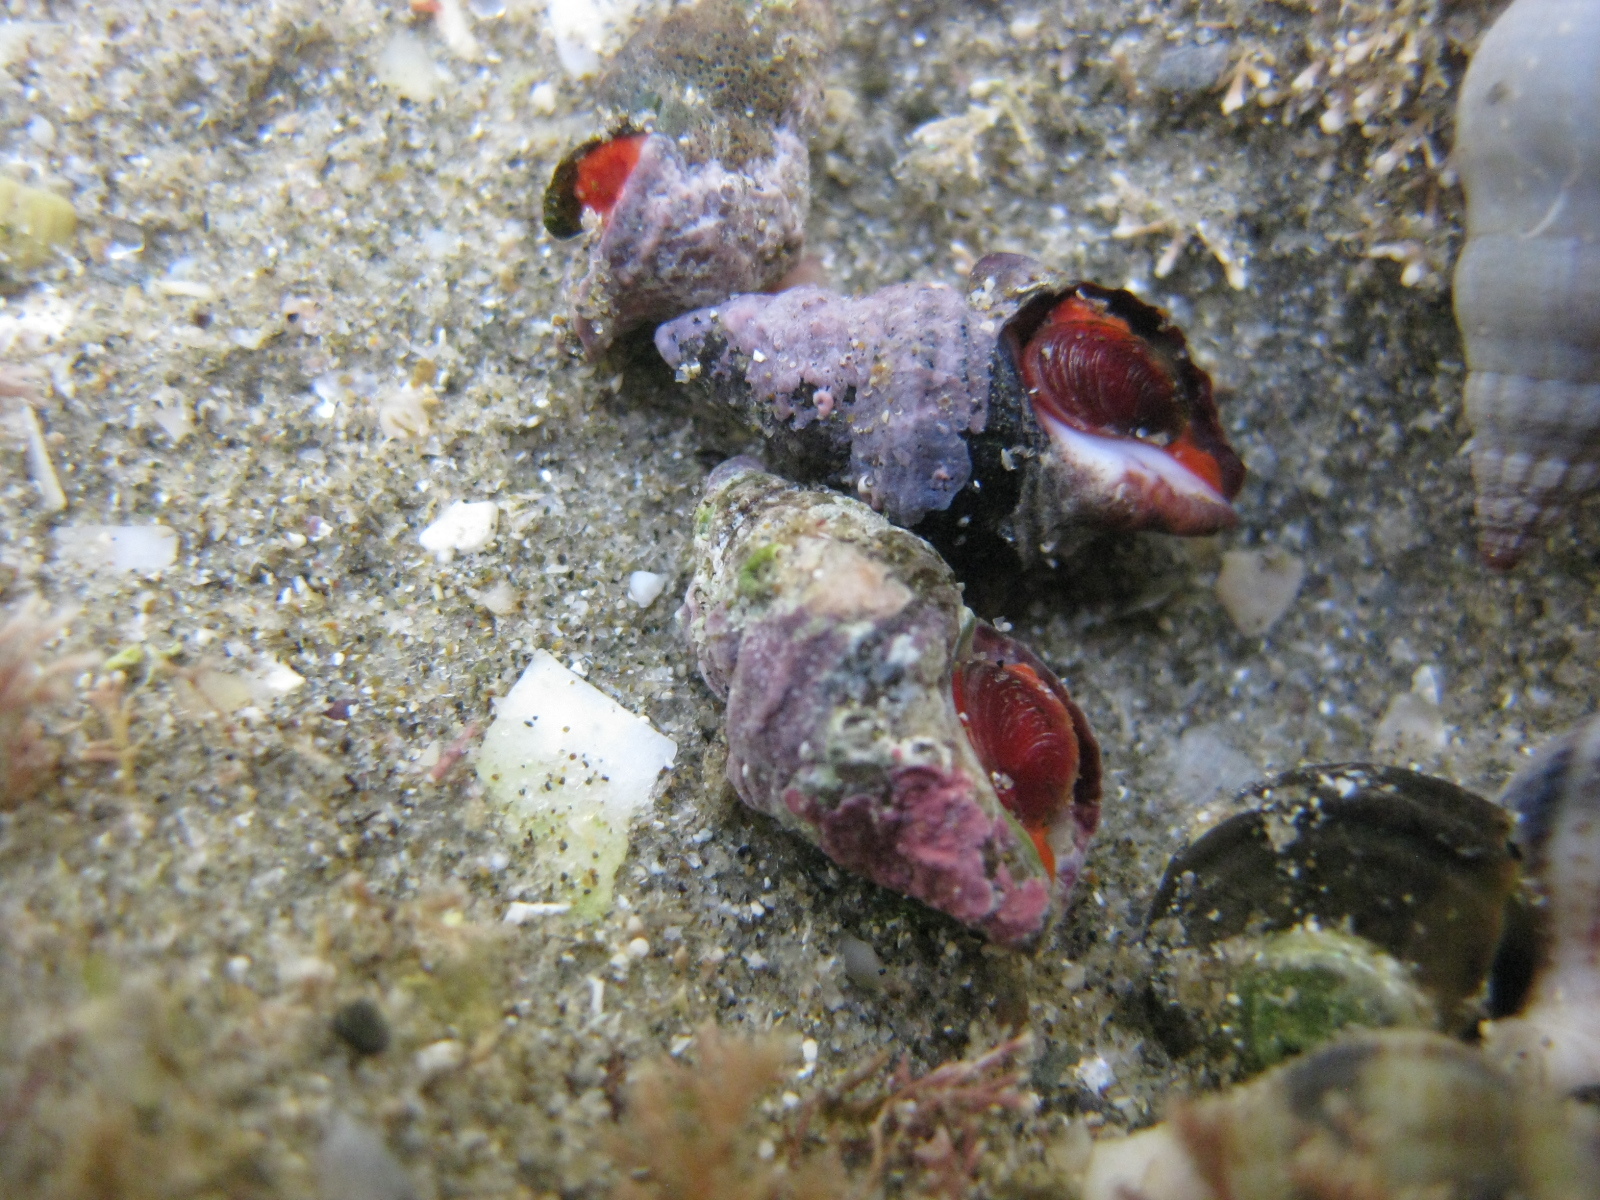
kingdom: Animalia
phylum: Mollusca
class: Gastropoda
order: Neogastropoda
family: Fasciolariidae
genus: Taron
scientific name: Taron dubius
